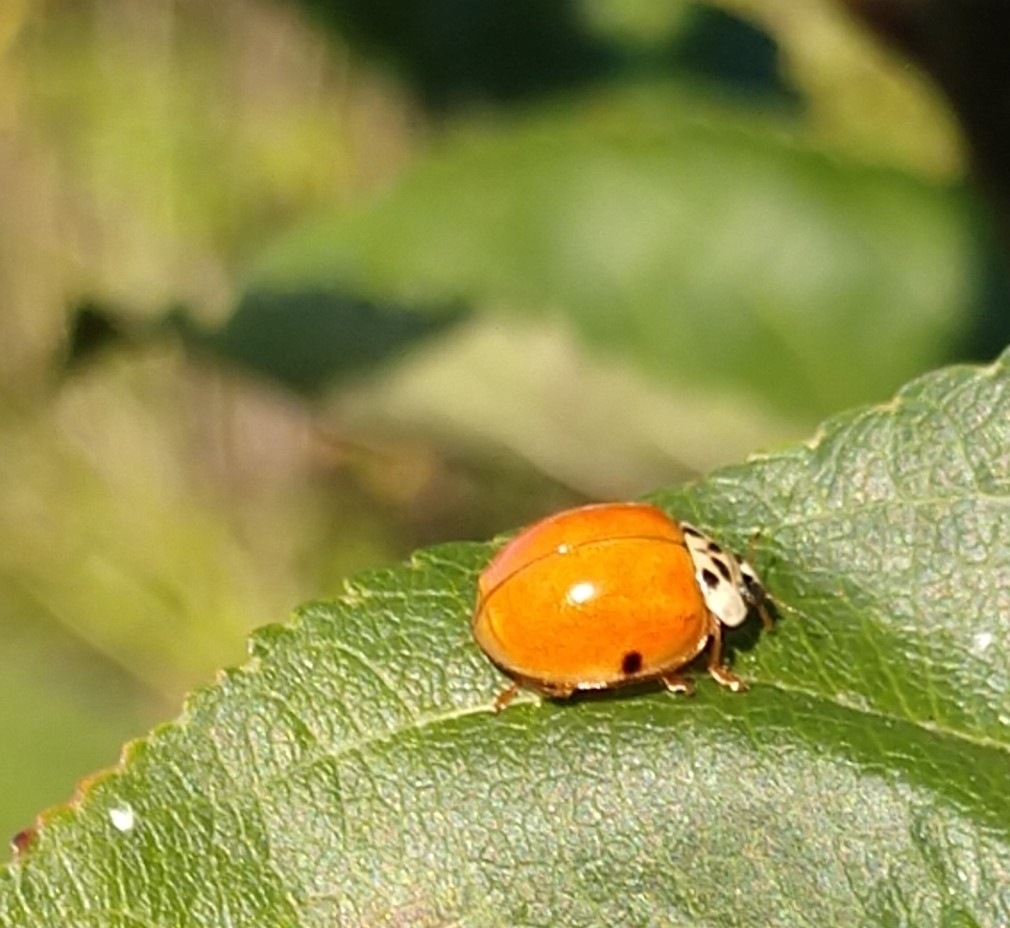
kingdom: Animalia
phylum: Arthropoda
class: Insecta
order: Coleoptera
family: Coccinellidae
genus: Harmonia
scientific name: Harmonia axyridis
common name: Harlequin ladybird
